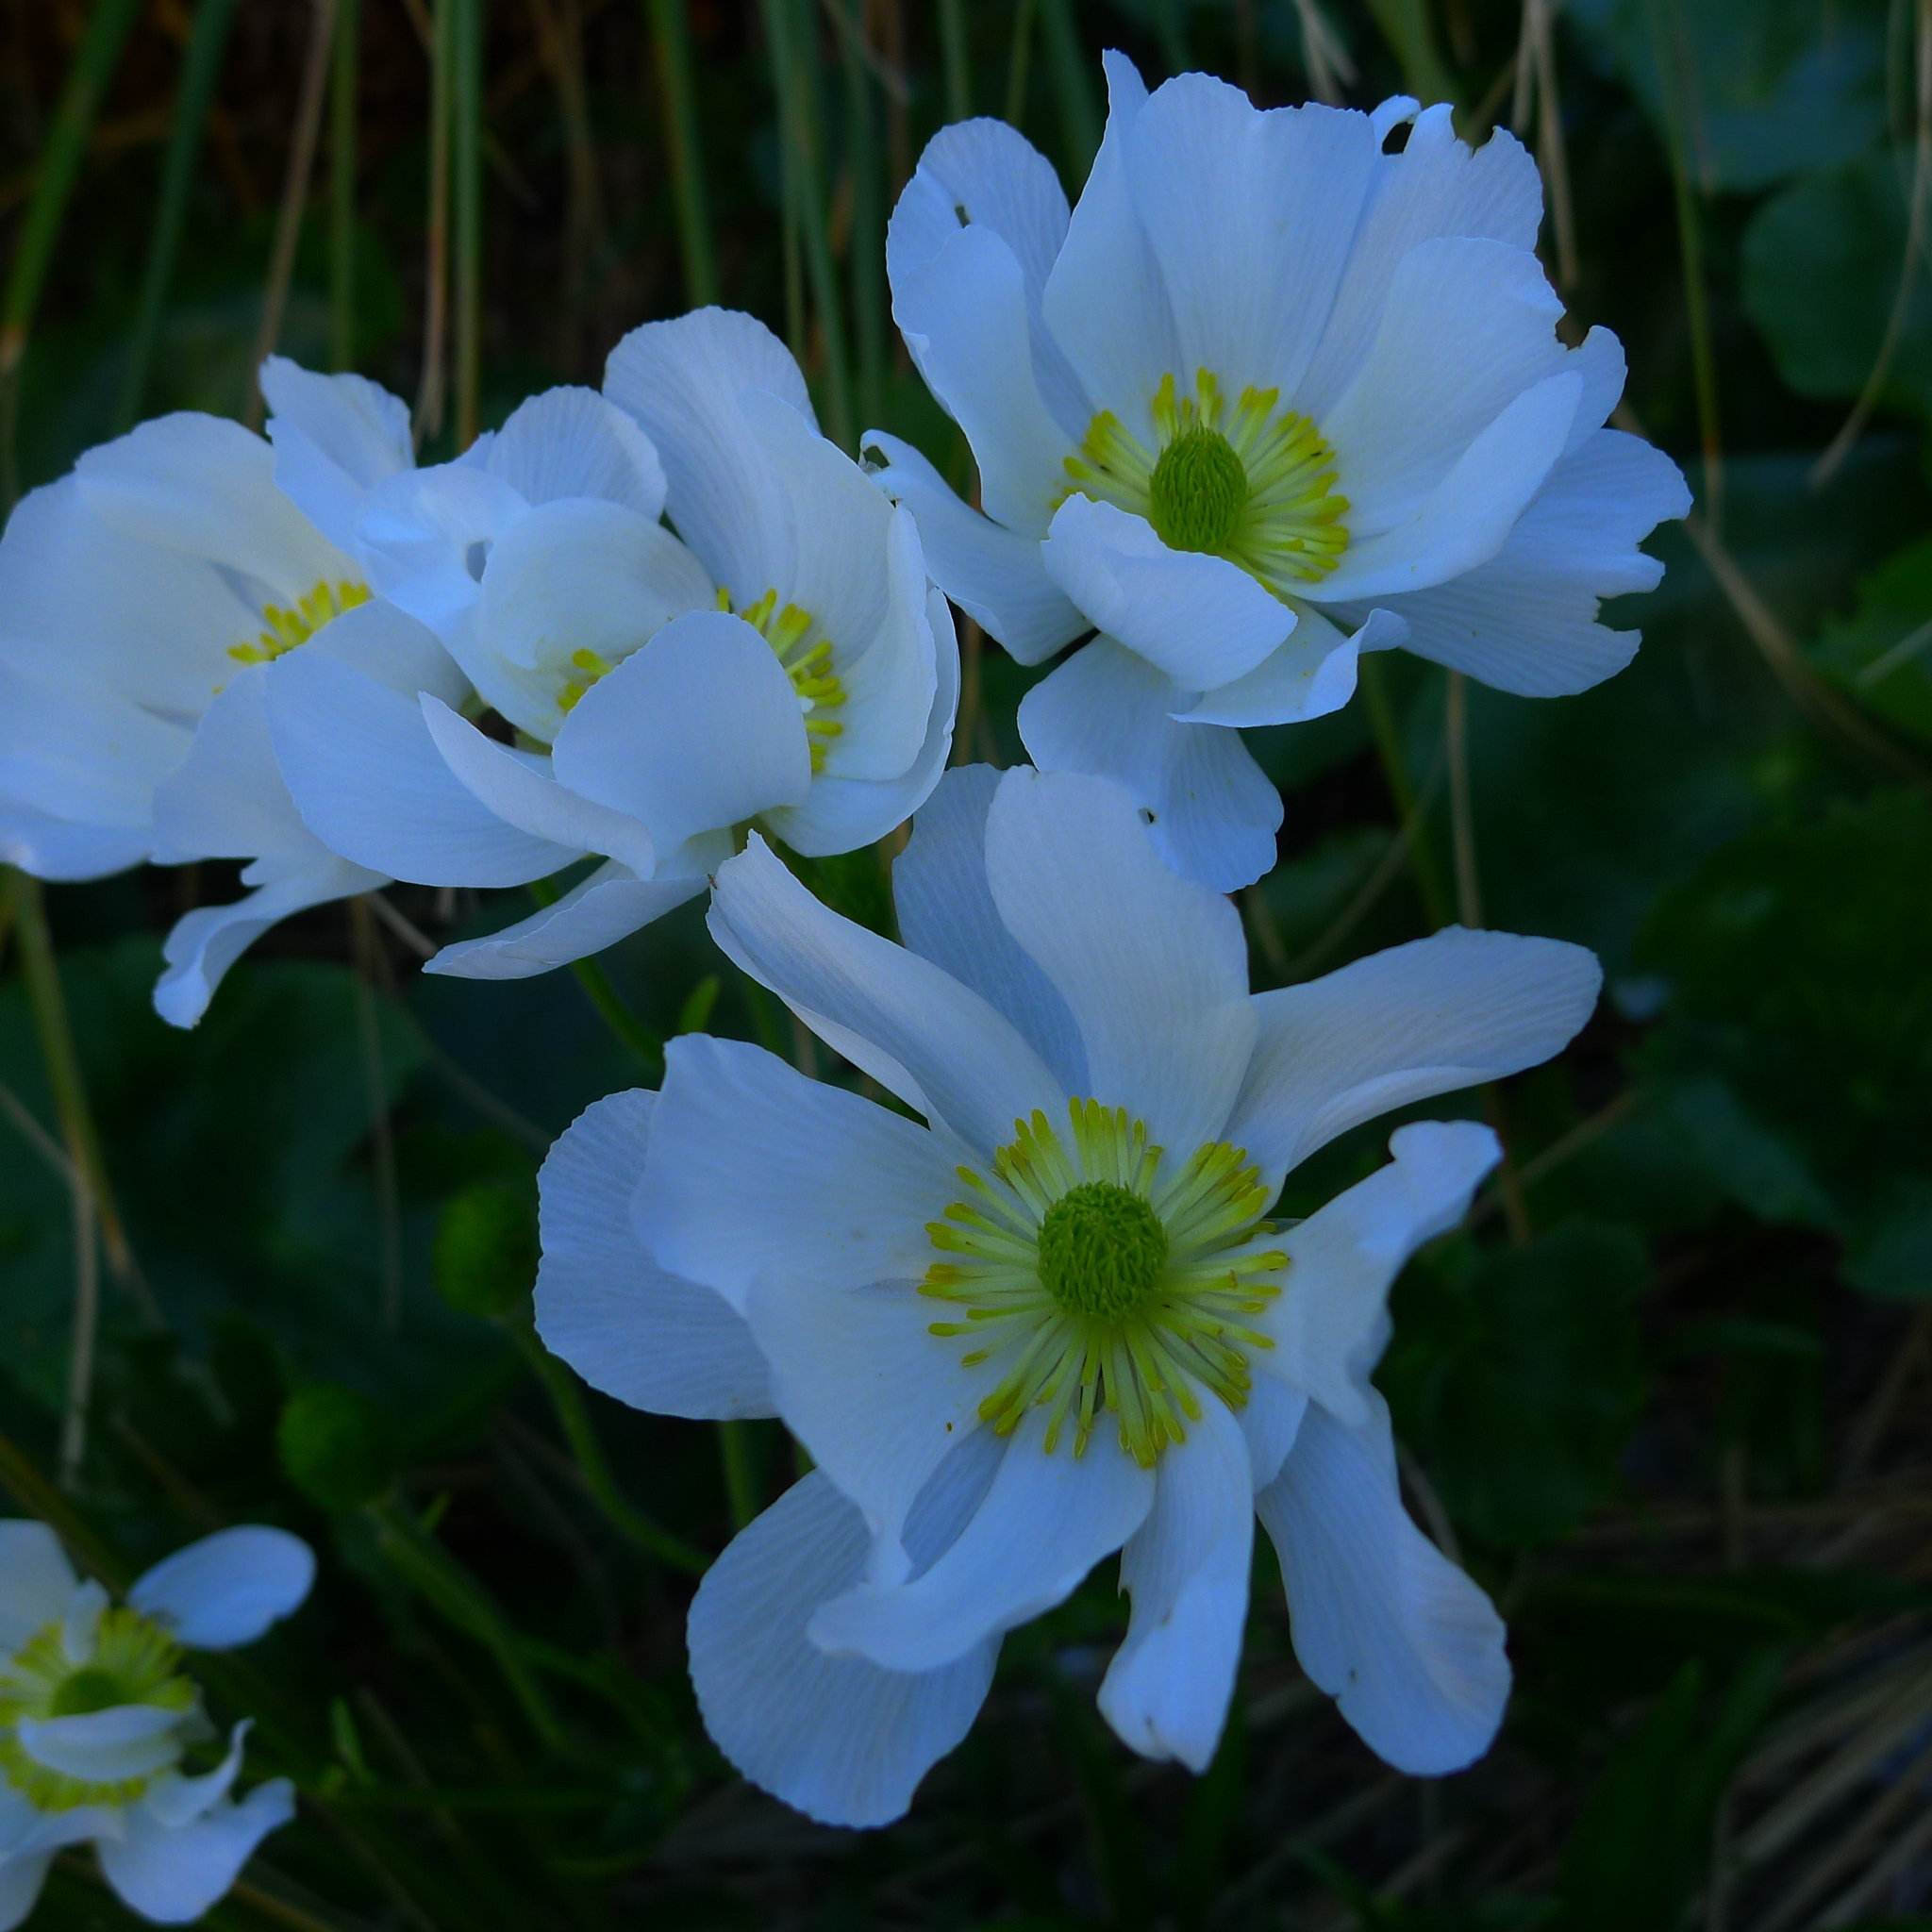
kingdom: Plantae
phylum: Tracheophyta
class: Magnoliopsida
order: Ranunculales
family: Ranunculaceae
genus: Ranunculus
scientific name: Ranunculus lyallii
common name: Mountain-lily
